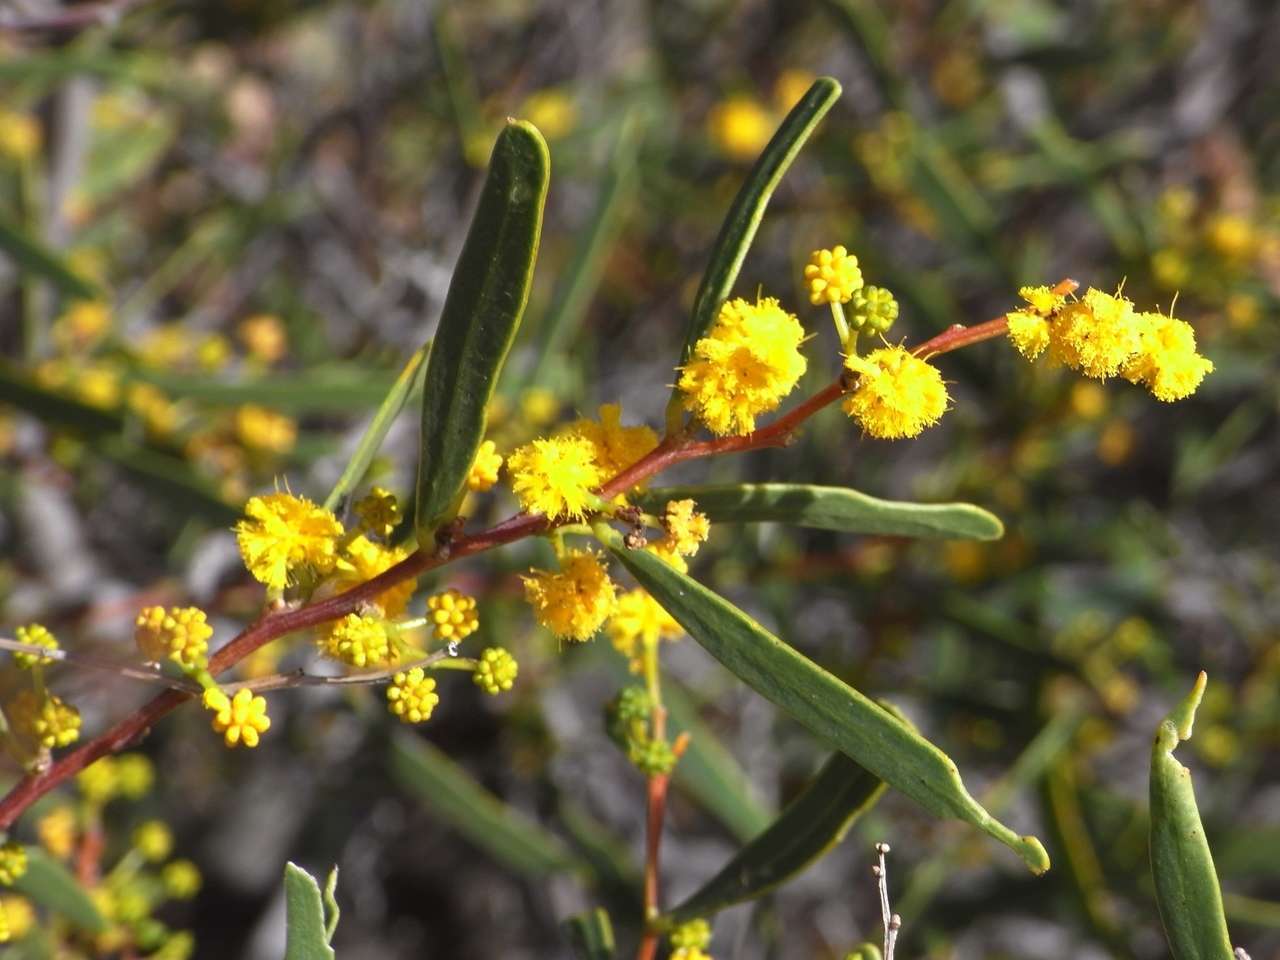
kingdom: Plantae
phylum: Tracheophyta
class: Magnoliopsida
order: Fabales
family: Fabaceae
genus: Acacia
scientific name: Acacia ligulata
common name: Dune wattle
